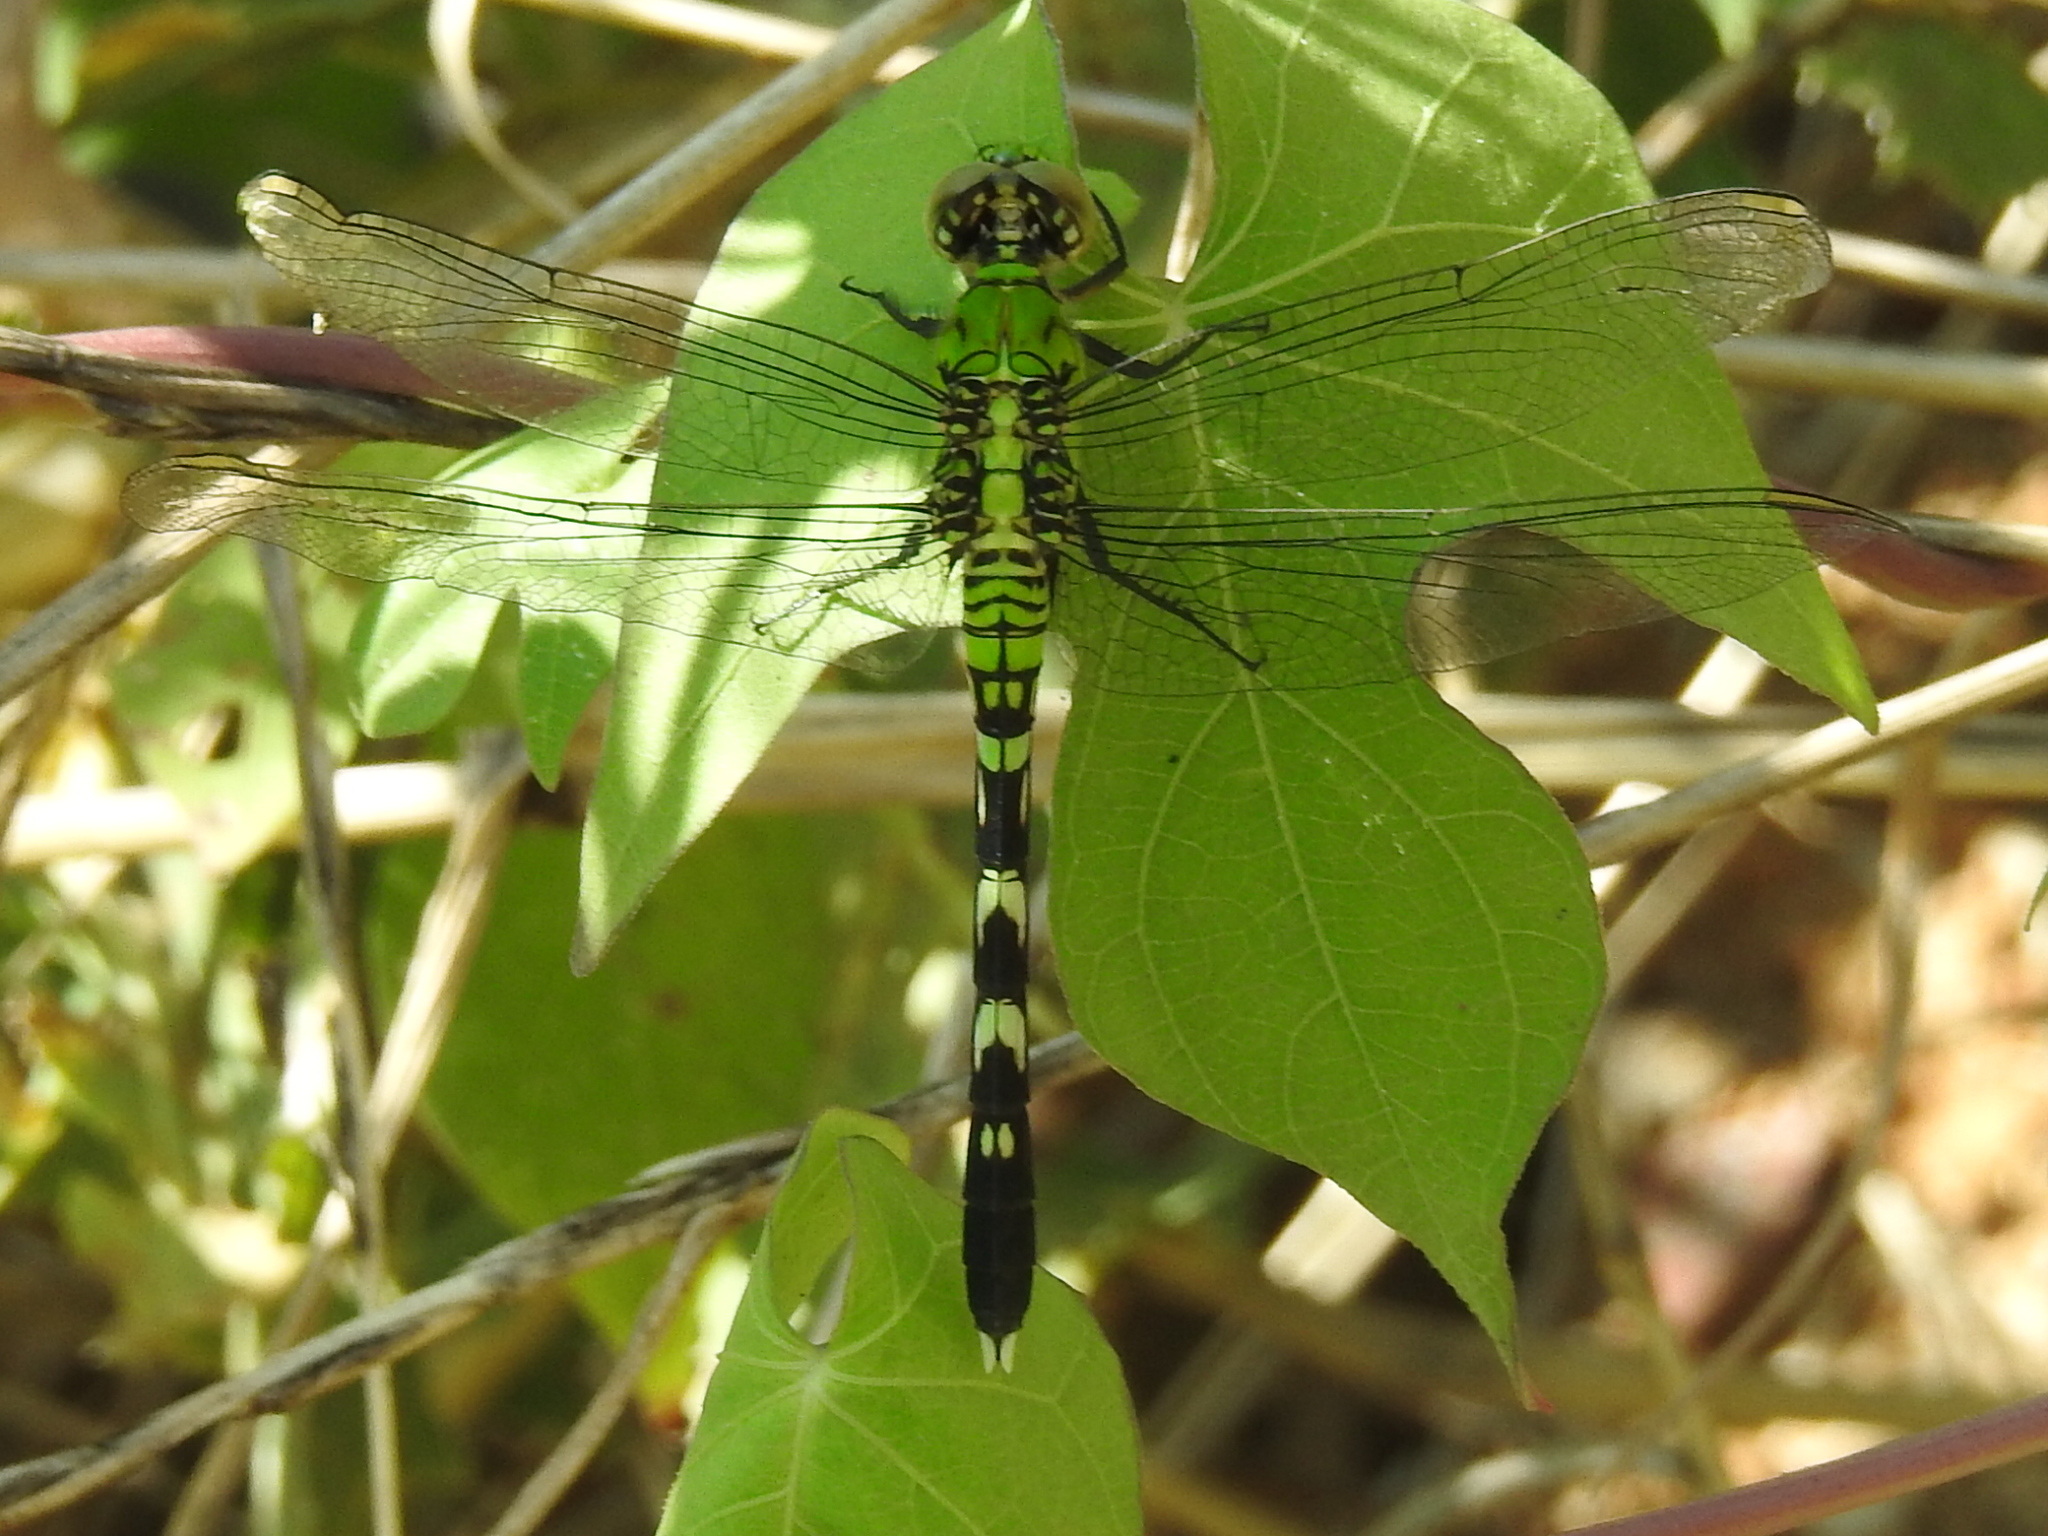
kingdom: Animalia
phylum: Arthropoda
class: Insecta
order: Odonata
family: Libellulidae
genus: Erythemis
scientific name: Erythemis simplicicollis
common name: Eastern pondhawk
